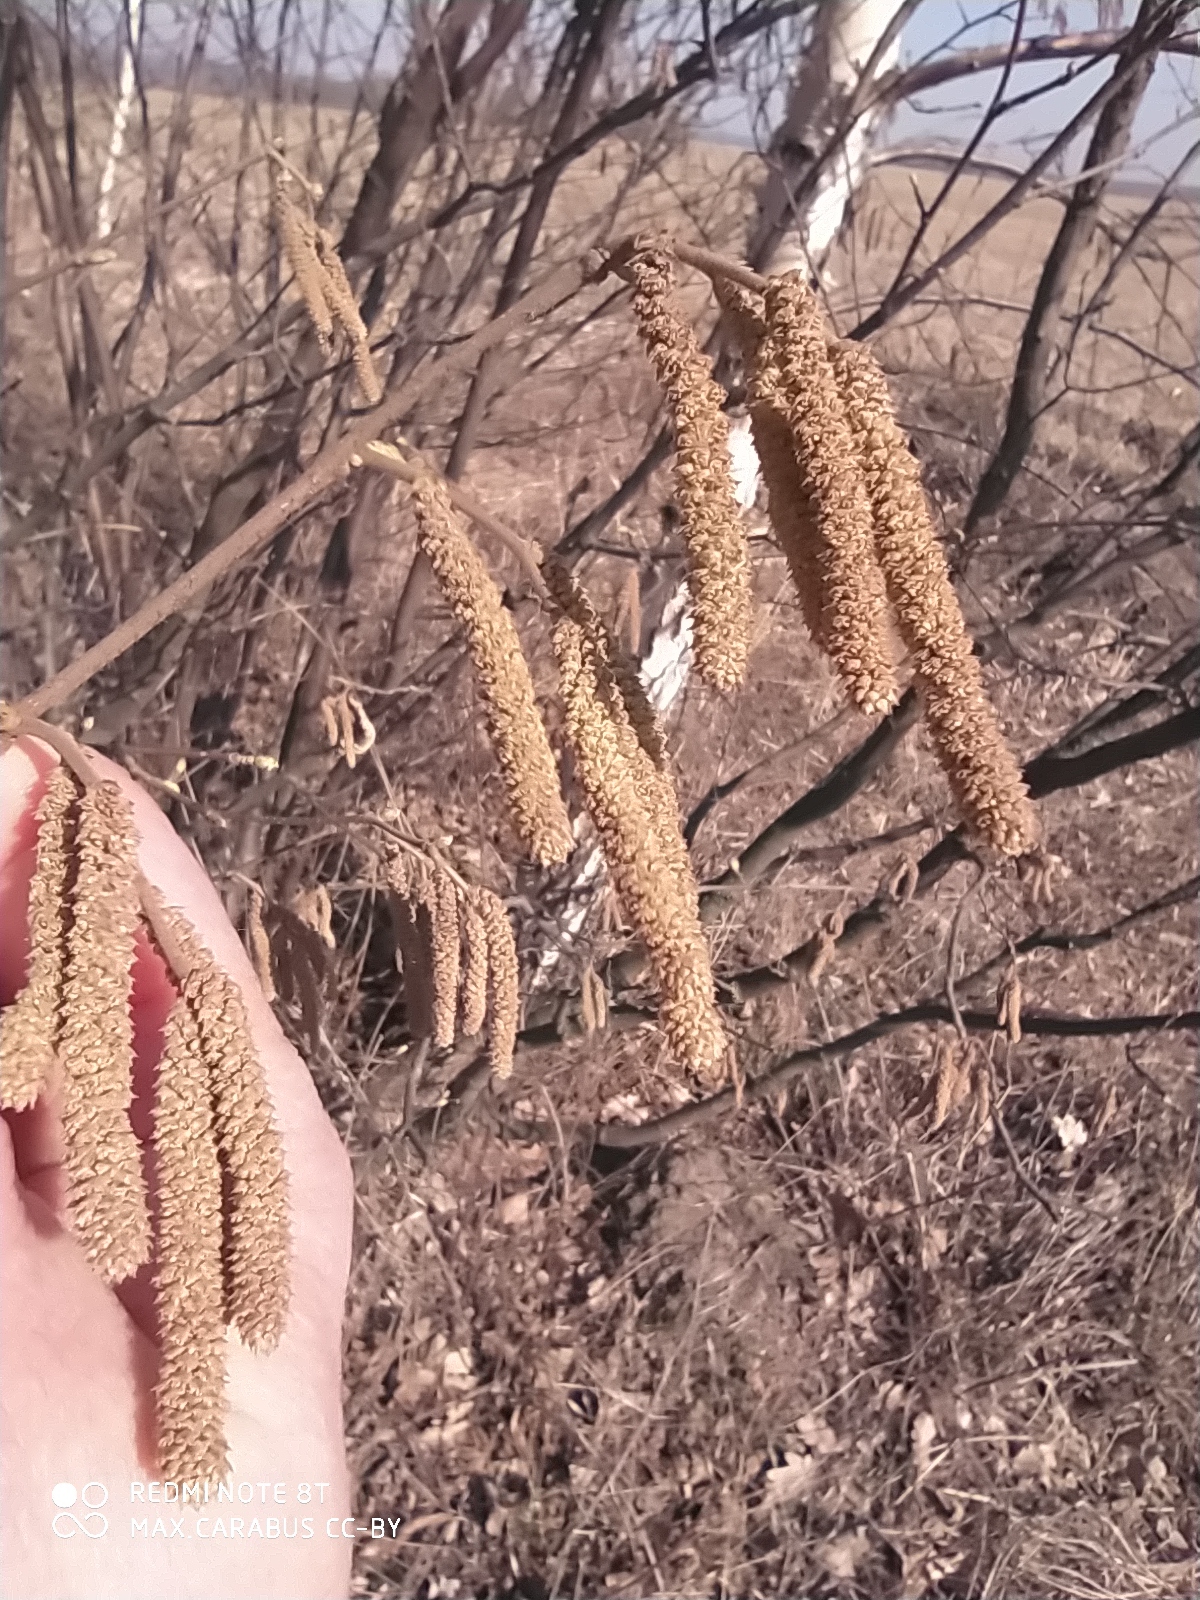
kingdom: Plantae
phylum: Tracheophyta
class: Magnoliopsida
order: Fagales
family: Betulaceae
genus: Corylus
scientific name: Corylus avellana
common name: European hazel
